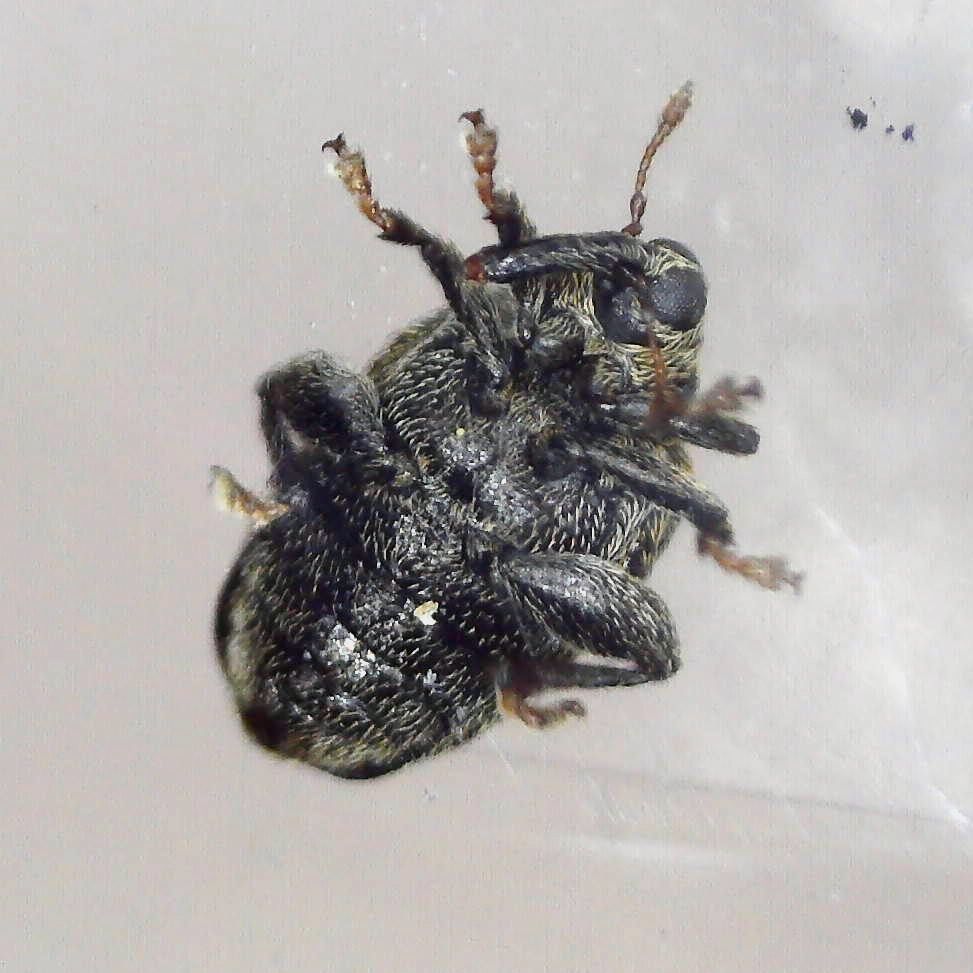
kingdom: Animalia
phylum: Arthropoda
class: Insecta
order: Coleoptera
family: Curculionidae
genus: Orchestes
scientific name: Orchestes rusci
